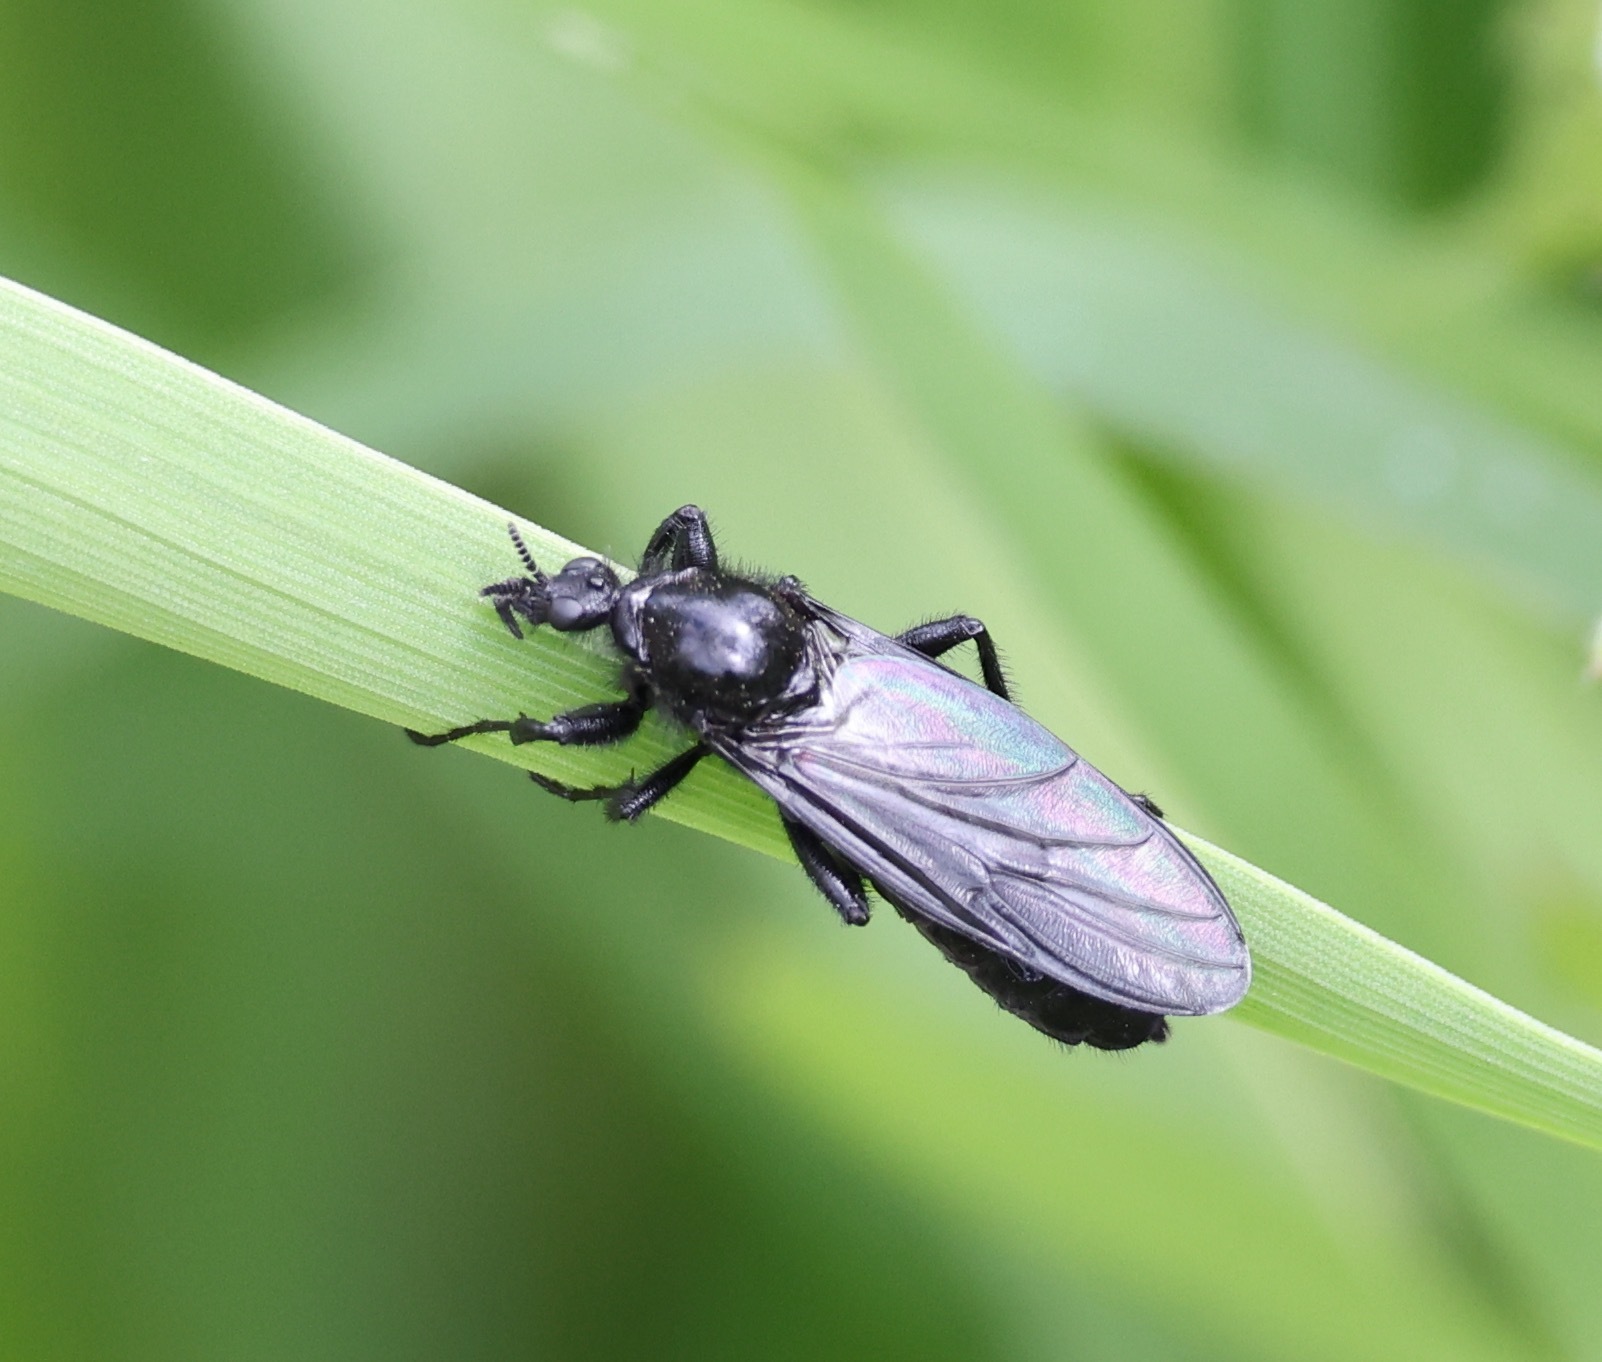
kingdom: Animalia
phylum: Arthropoda
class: Insecta
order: Diptera
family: Bibionidae
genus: Bibio
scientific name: Bibio marci
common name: St marks fly
